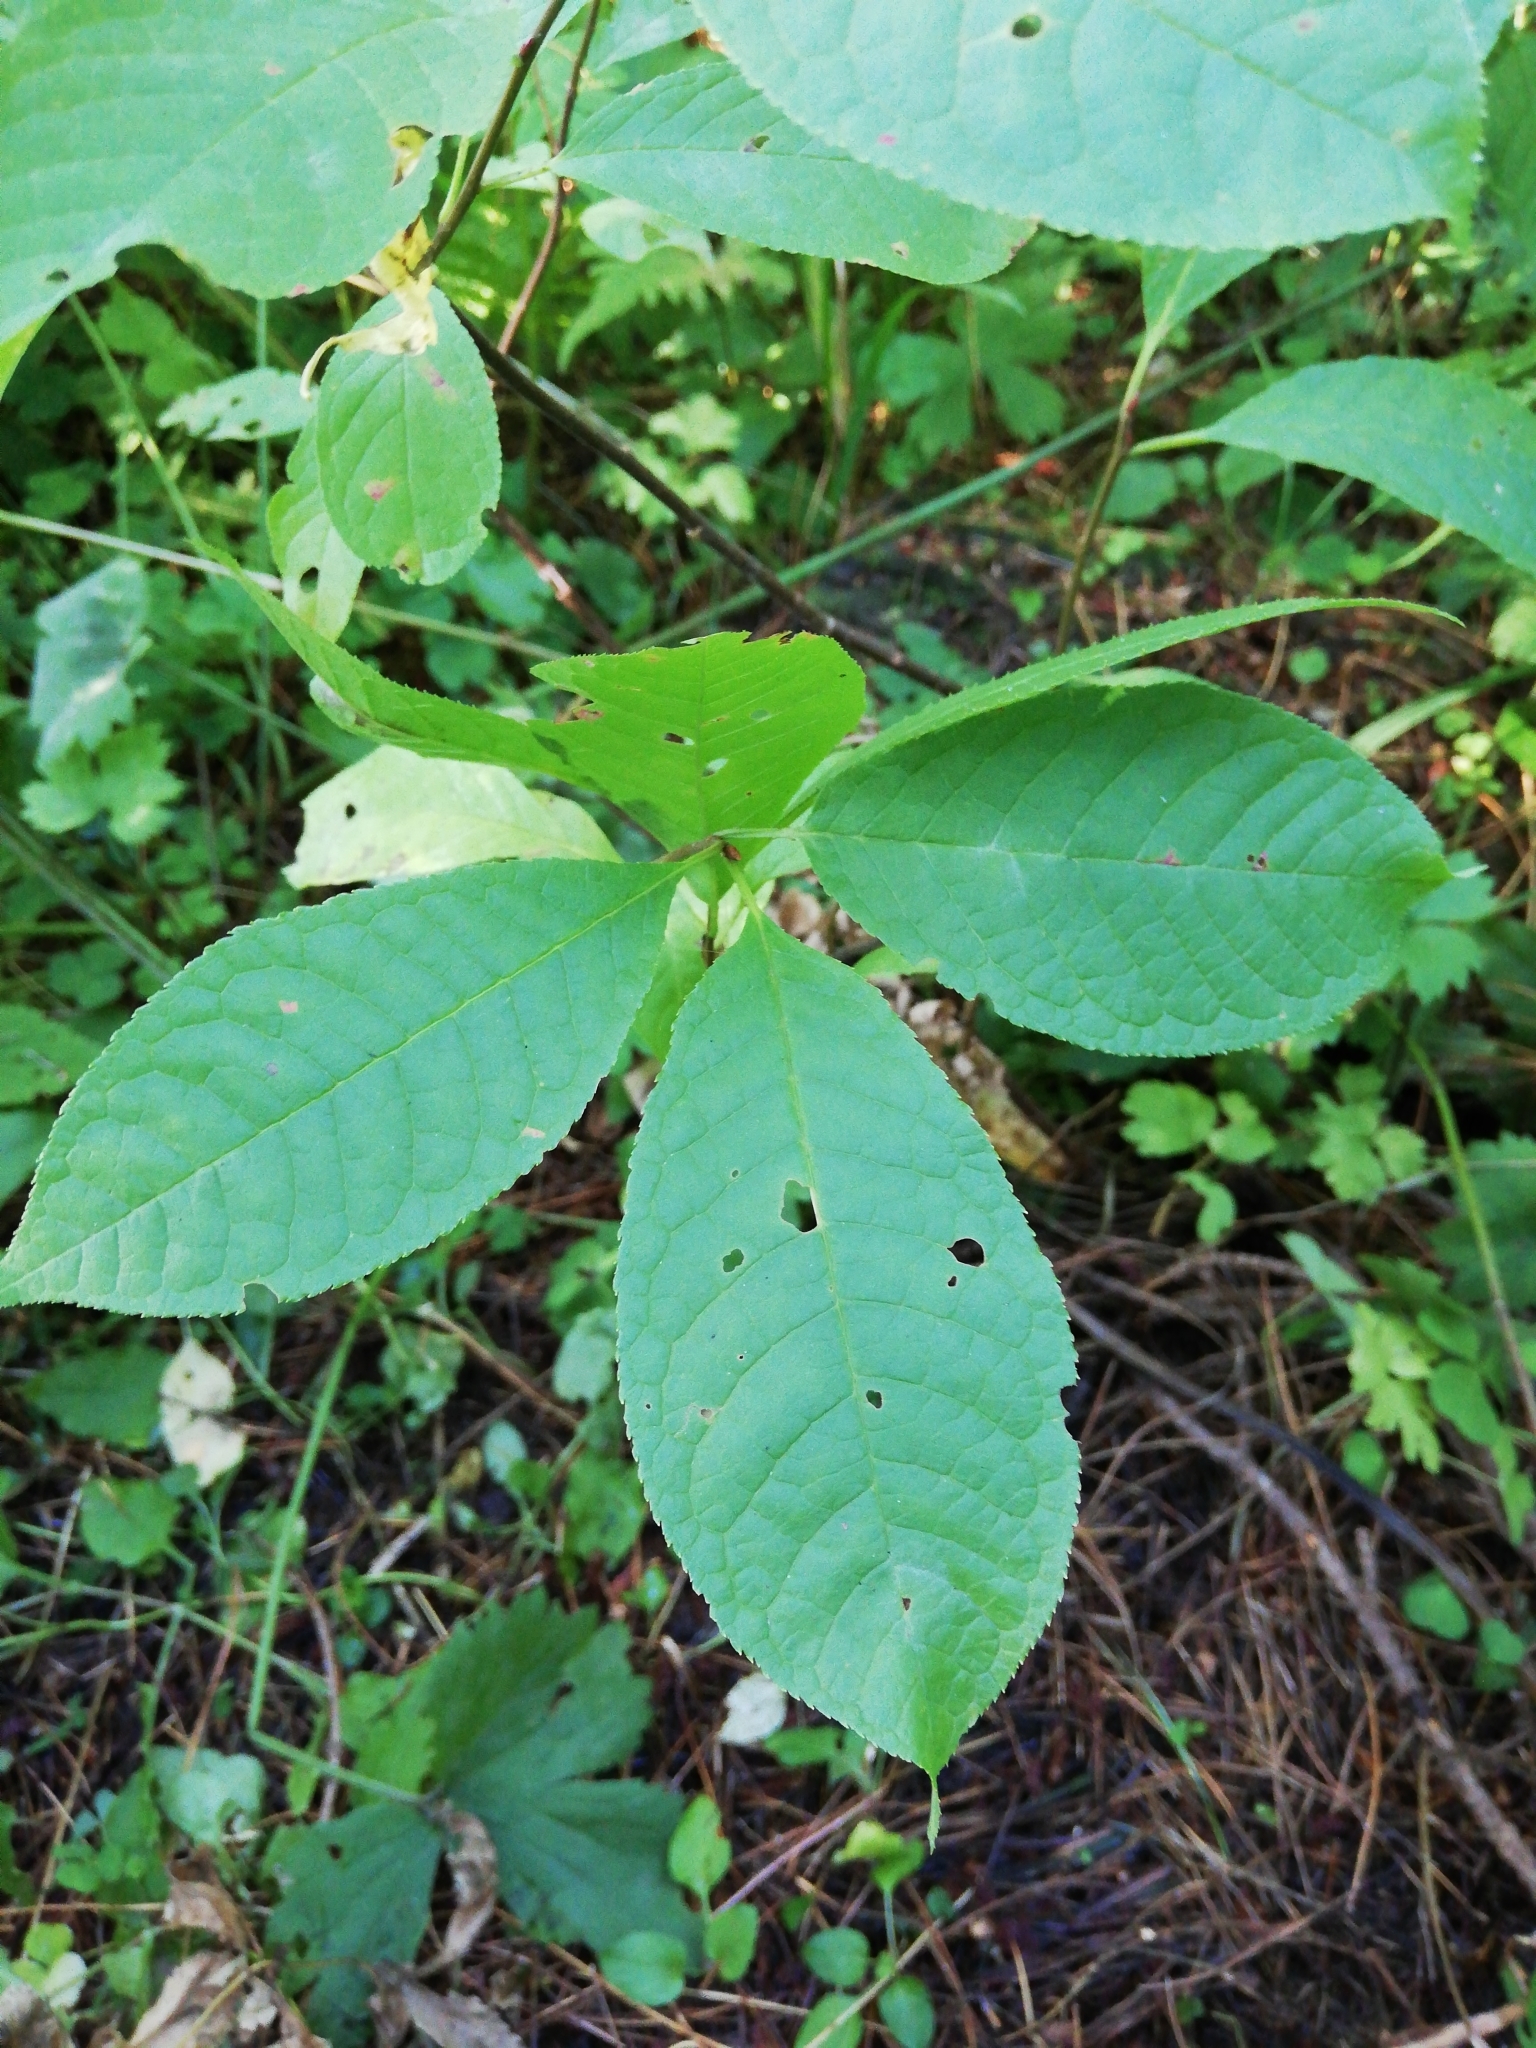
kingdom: Plantae
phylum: Tracheophyta
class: Magnoliopsida
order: Rosales
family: Rosaceae
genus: Prunus
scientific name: Prunus padus
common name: Bird cherry
